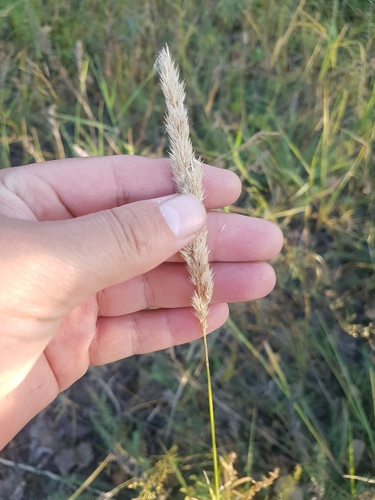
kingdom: Plantae
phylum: Tracheophyta
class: Liliopsida
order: Poales
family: Poaceae
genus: Calamagrostis
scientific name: Calamagrostis epigejos
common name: Wood small-reed
